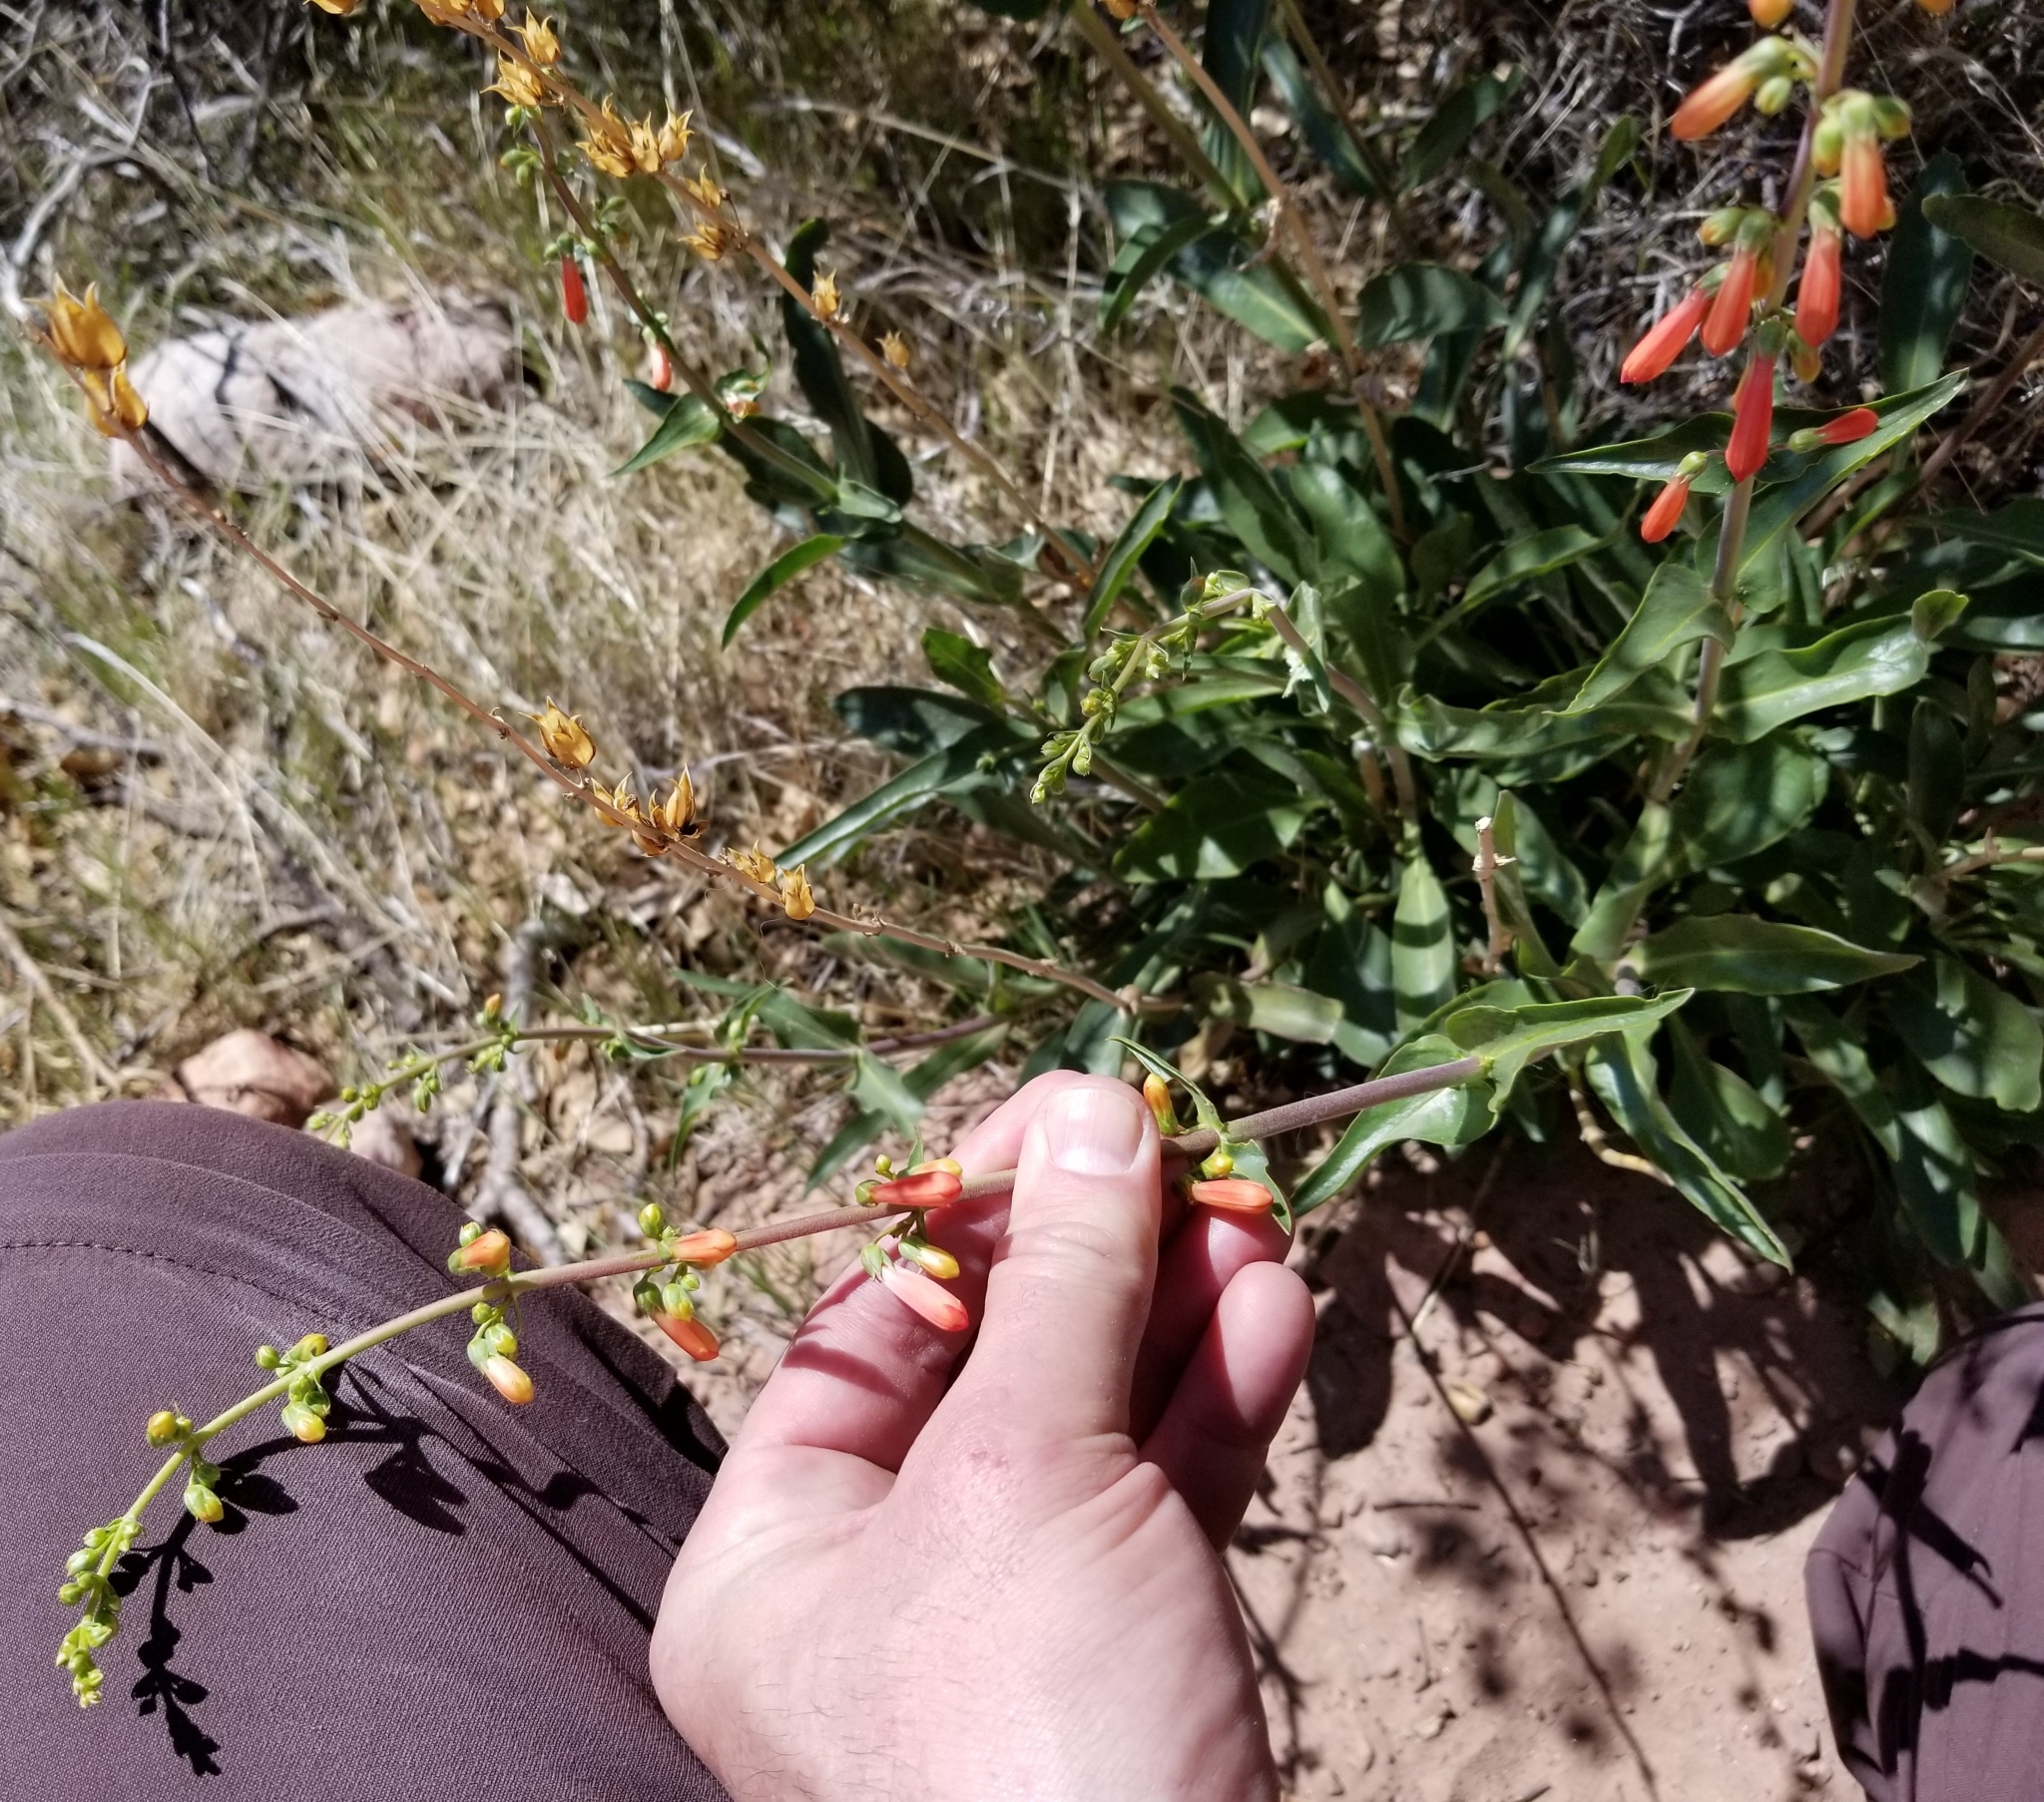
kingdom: Plantae
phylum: Tracheophyta
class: Magnoliopsida
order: Lamiales
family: Plantaginaceae
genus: Penstemon
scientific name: Penstemon eatonii
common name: Eaton's penstemon
